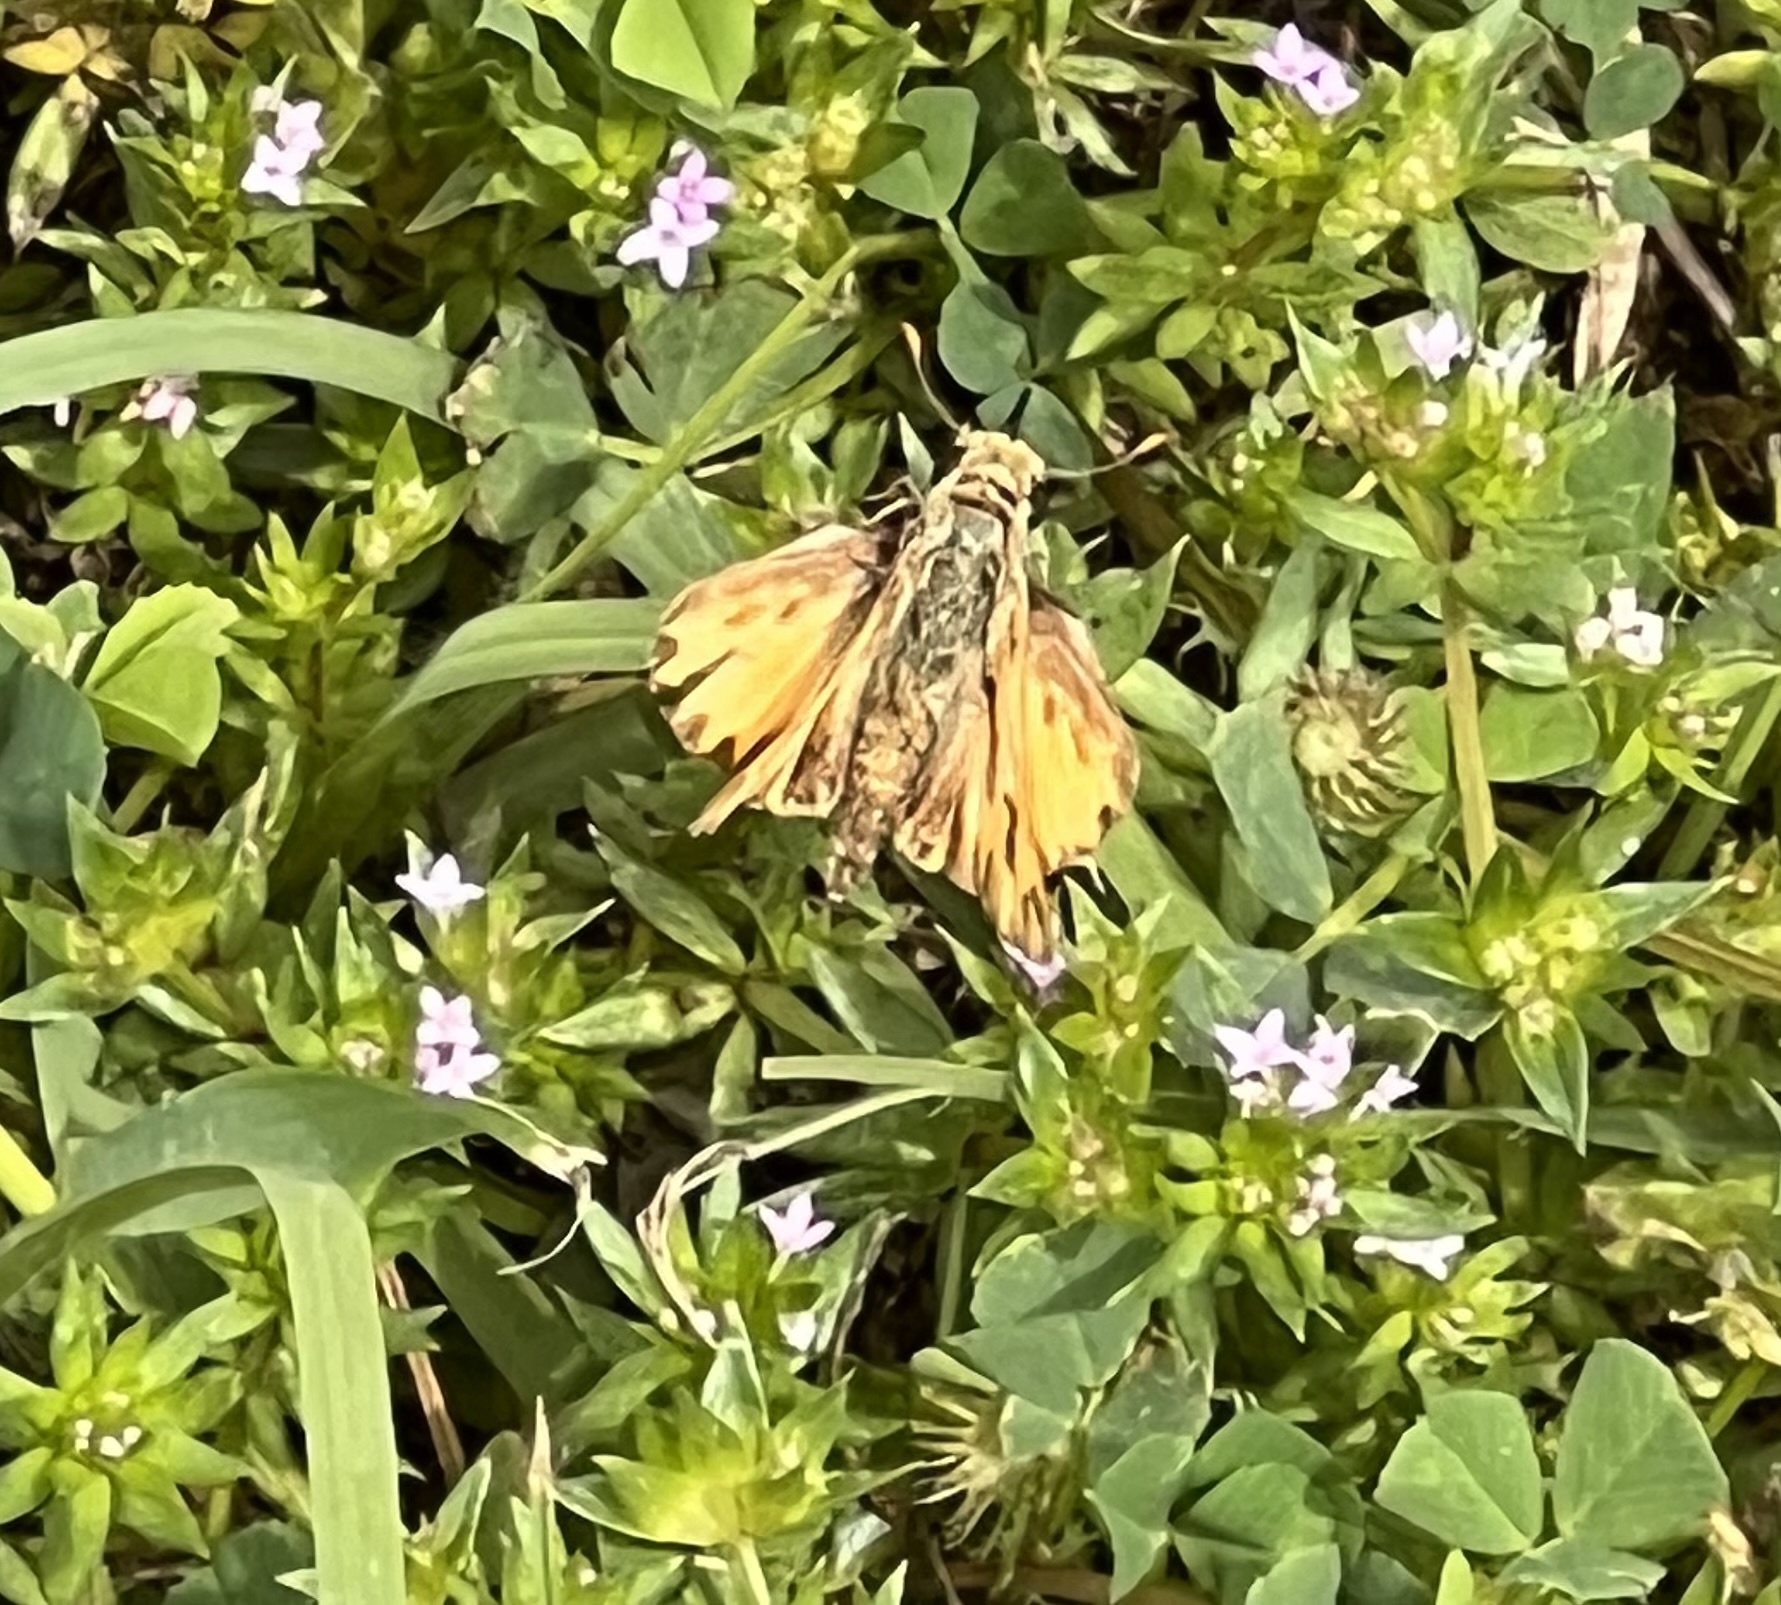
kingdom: Animalia
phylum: Arthropoda
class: Insecta
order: Lepidoptera
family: Hesperiidae
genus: Hylephila
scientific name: Hylephila phyleus
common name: Fiery skipper
